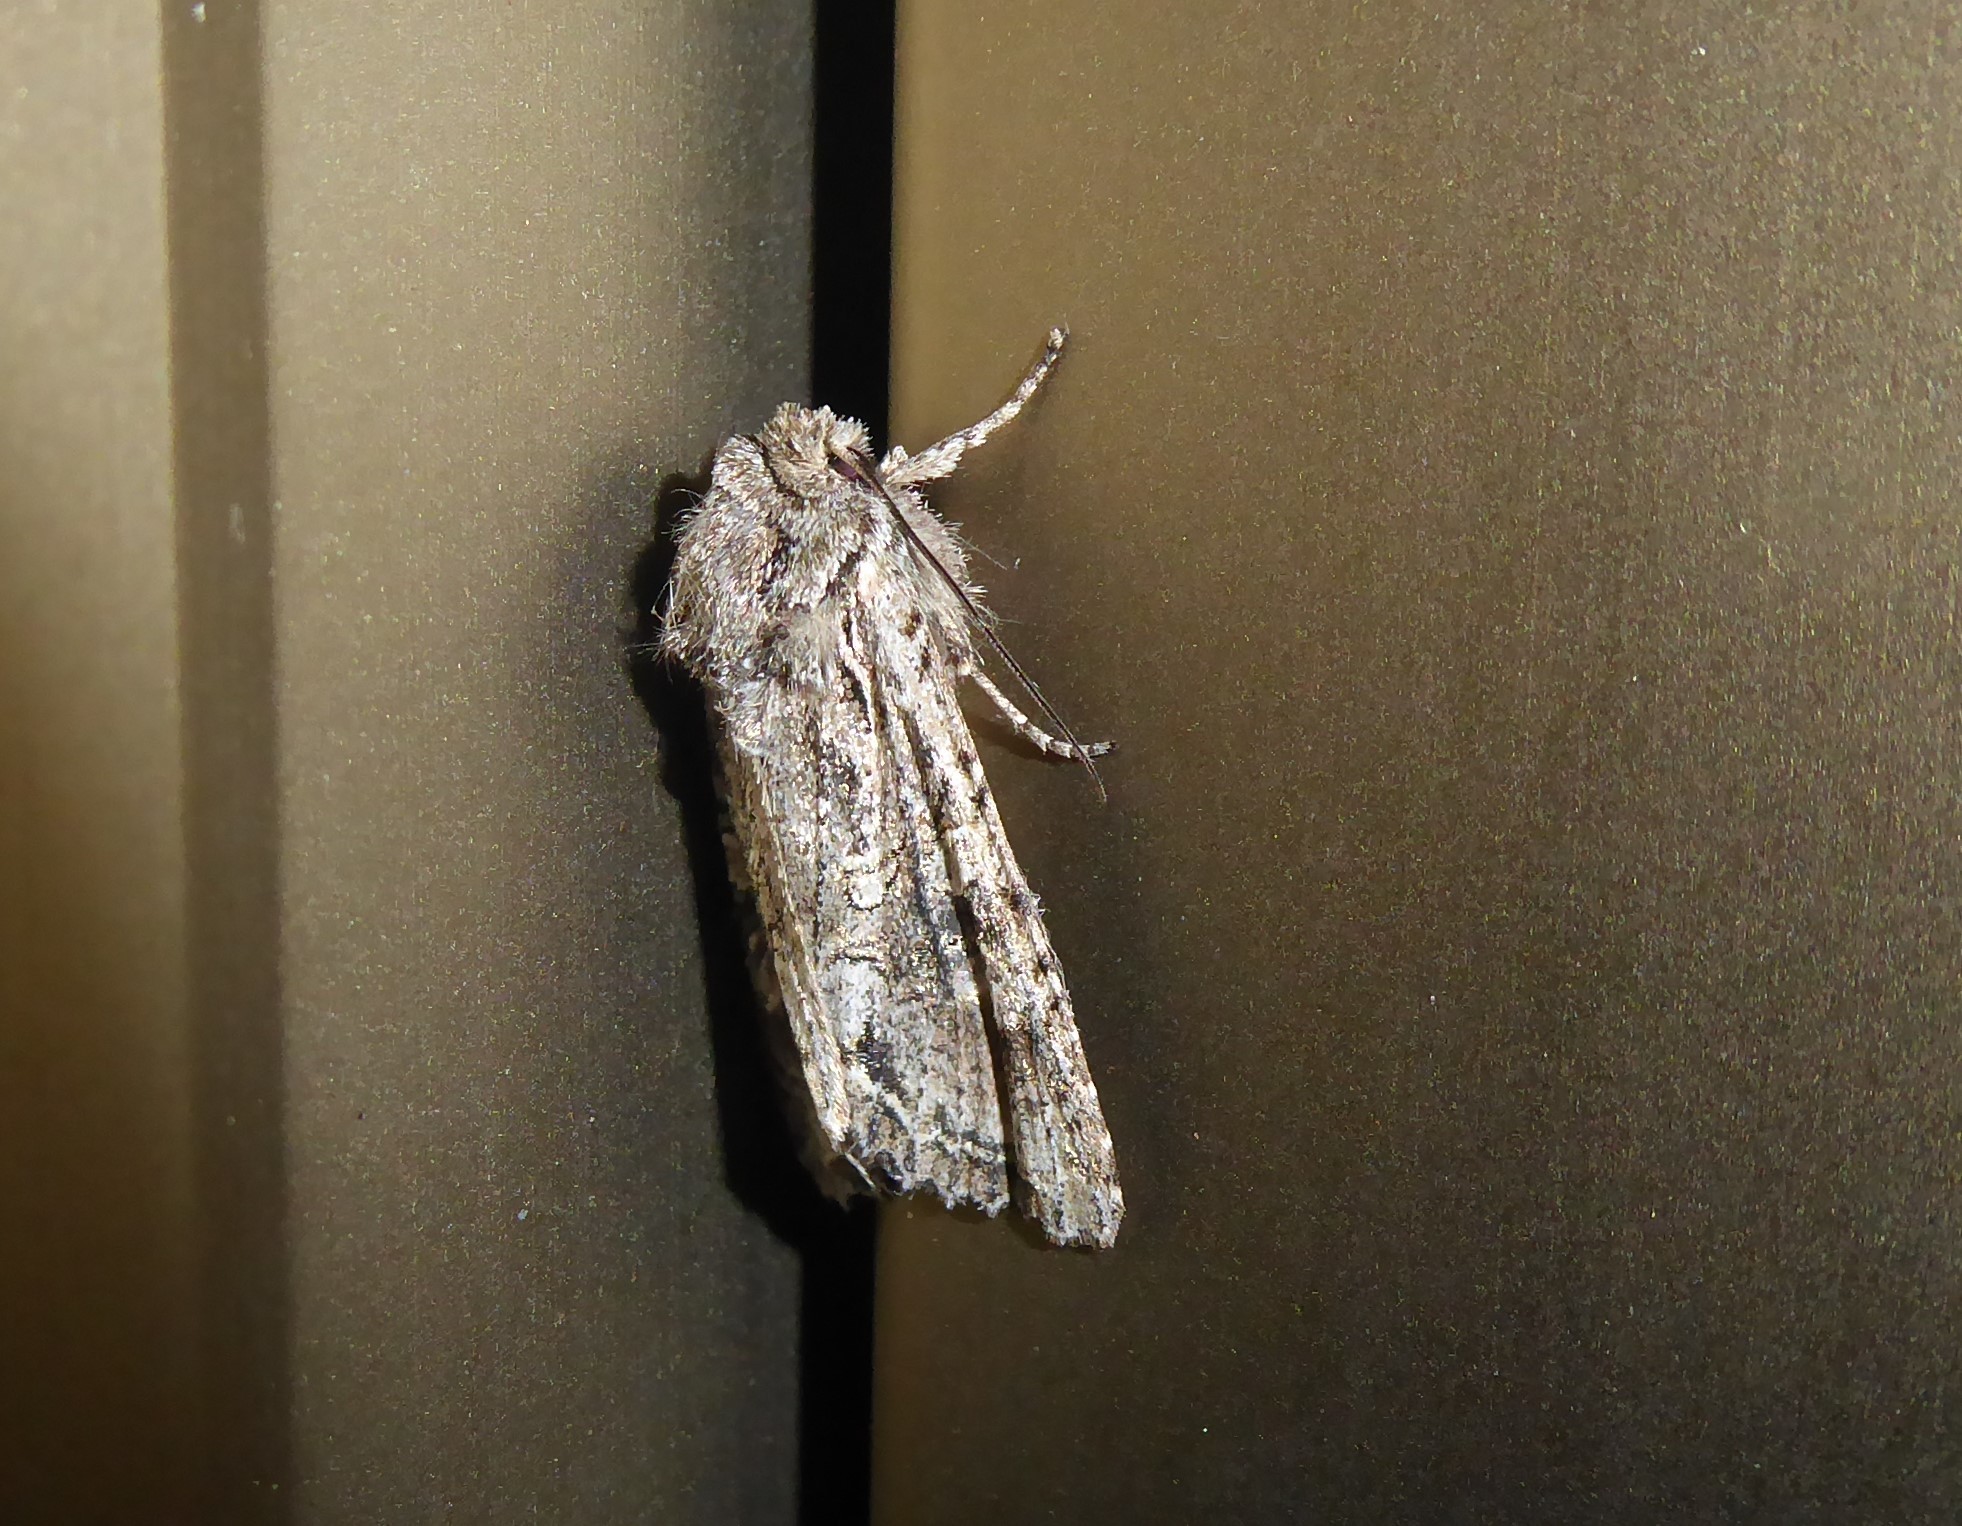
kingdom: Animalia
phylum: Arthropoda
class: Insecta
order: Lepidoptera
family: Noctuidae
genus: Ichneutica
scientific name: Ichneutica mutans
